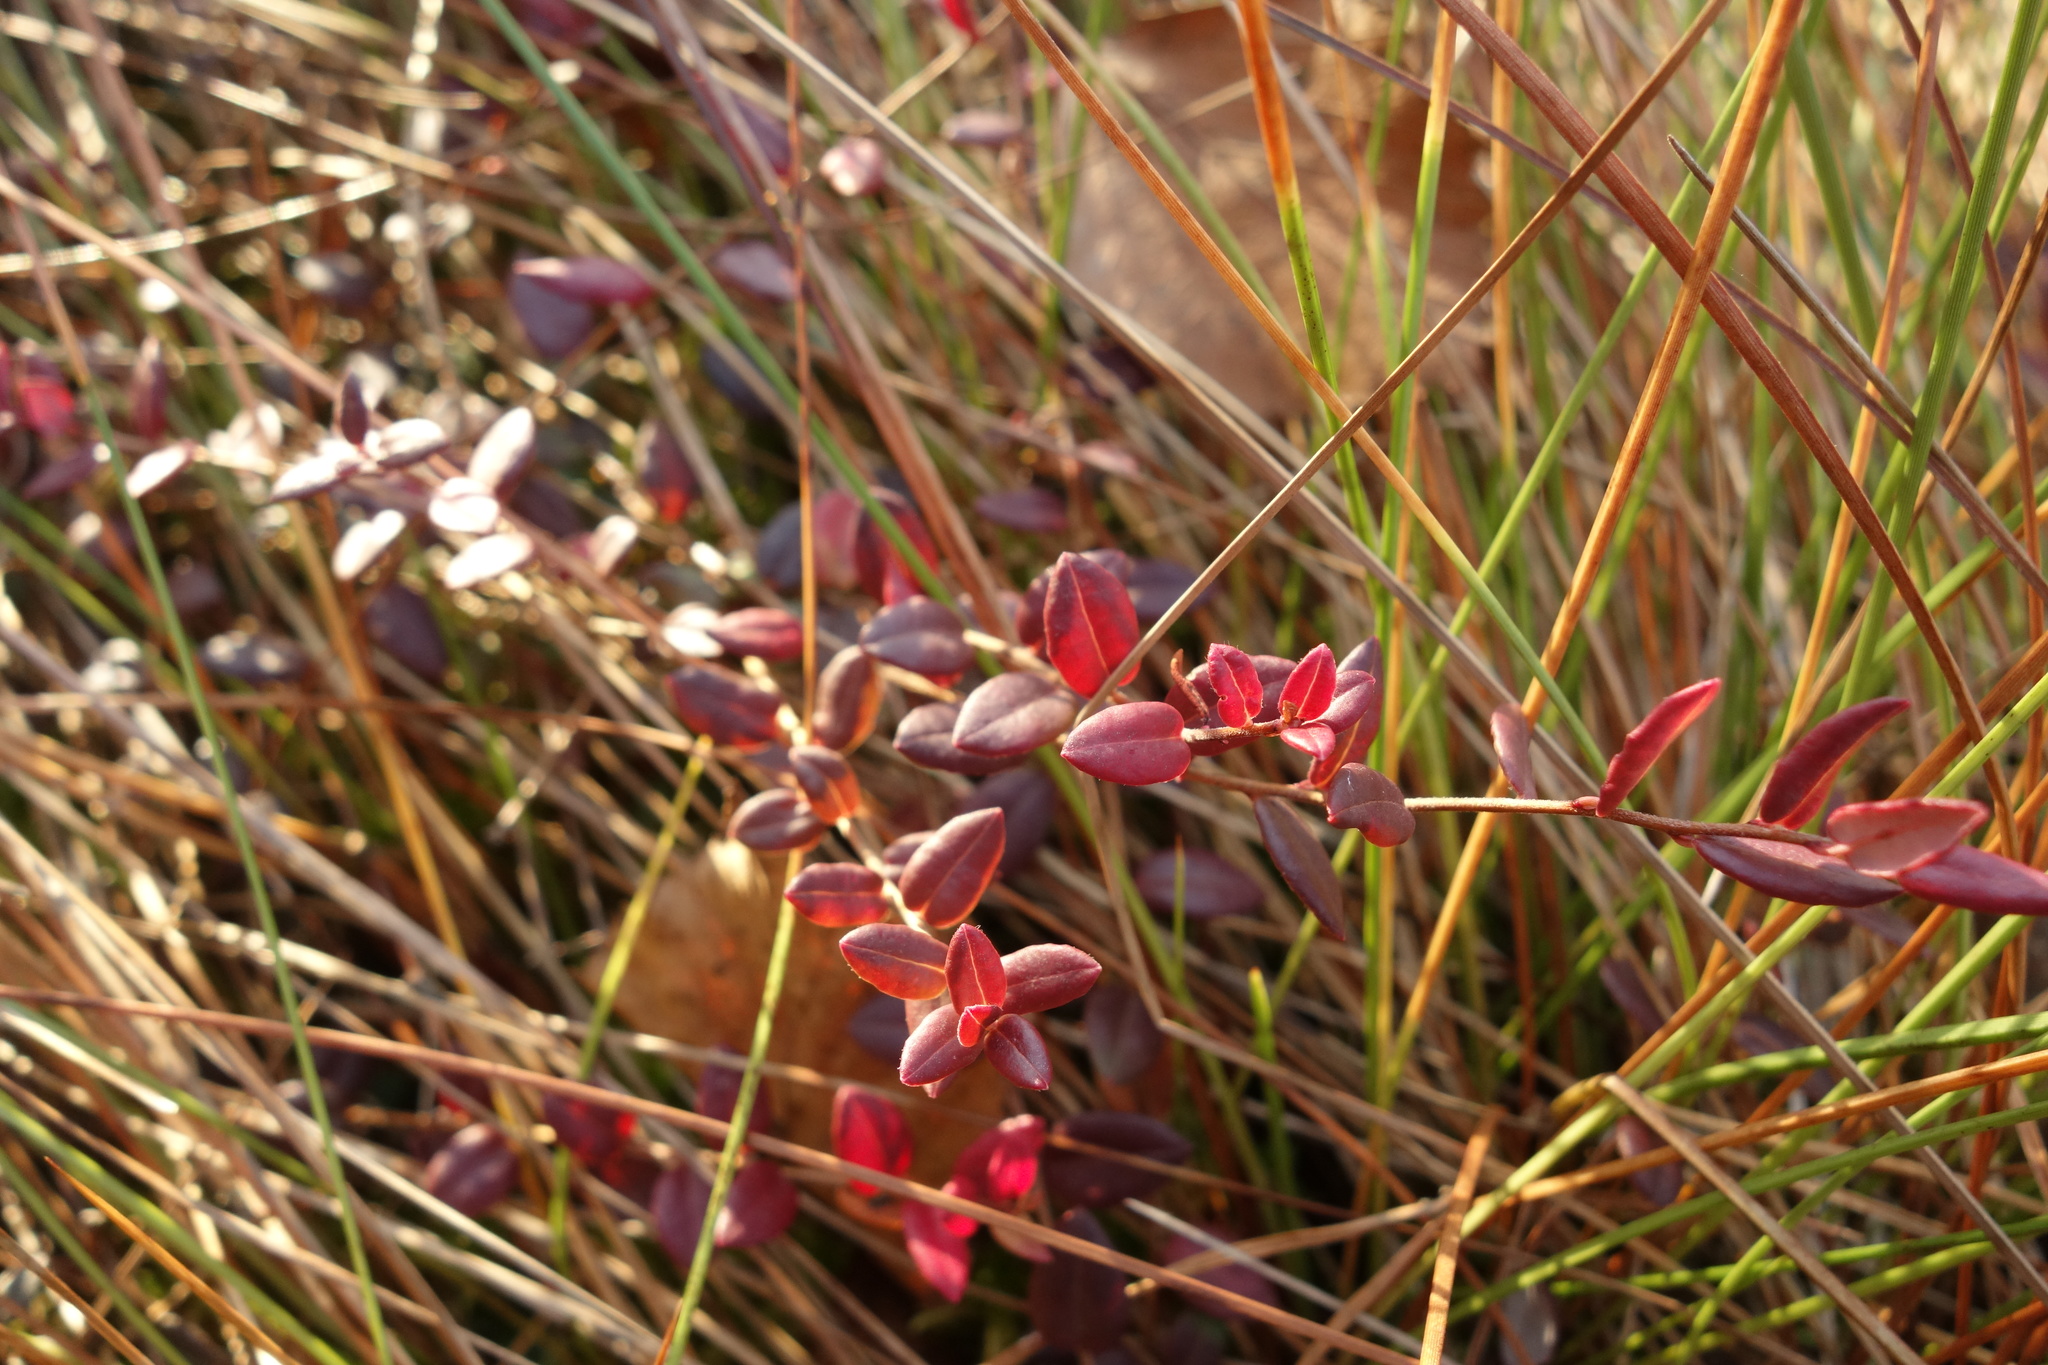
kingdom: Plantae
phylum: Tracheophyta
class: Magnoliopsida
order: Ericales
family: Ericaceae
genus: Vaccinium
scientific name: Vaccinium oxycoccos
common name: Cranberry
